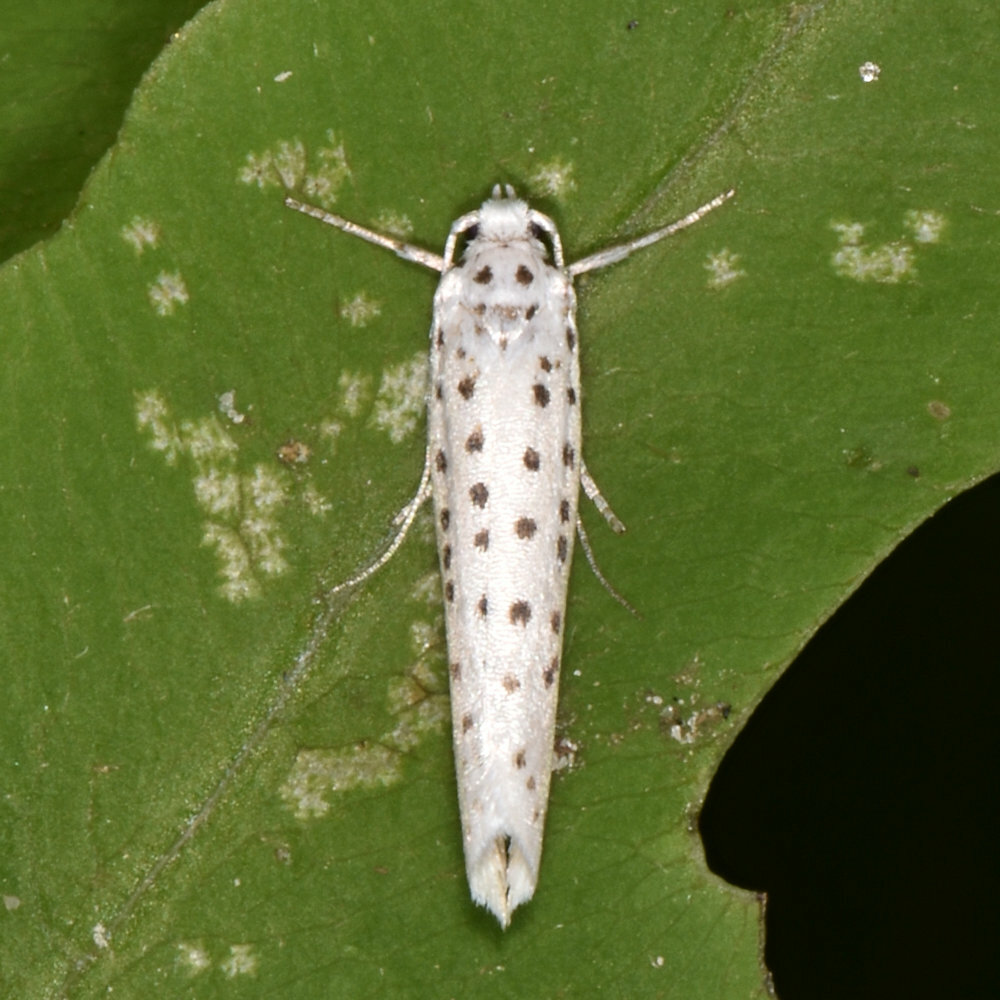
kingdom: Animalia
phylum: Arthropoda
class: Insecta
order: Lepidoptera
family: Yponomeutidae
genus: Yponomeuta
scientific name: Yponomeuta multipunctella
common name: American ermine moth
